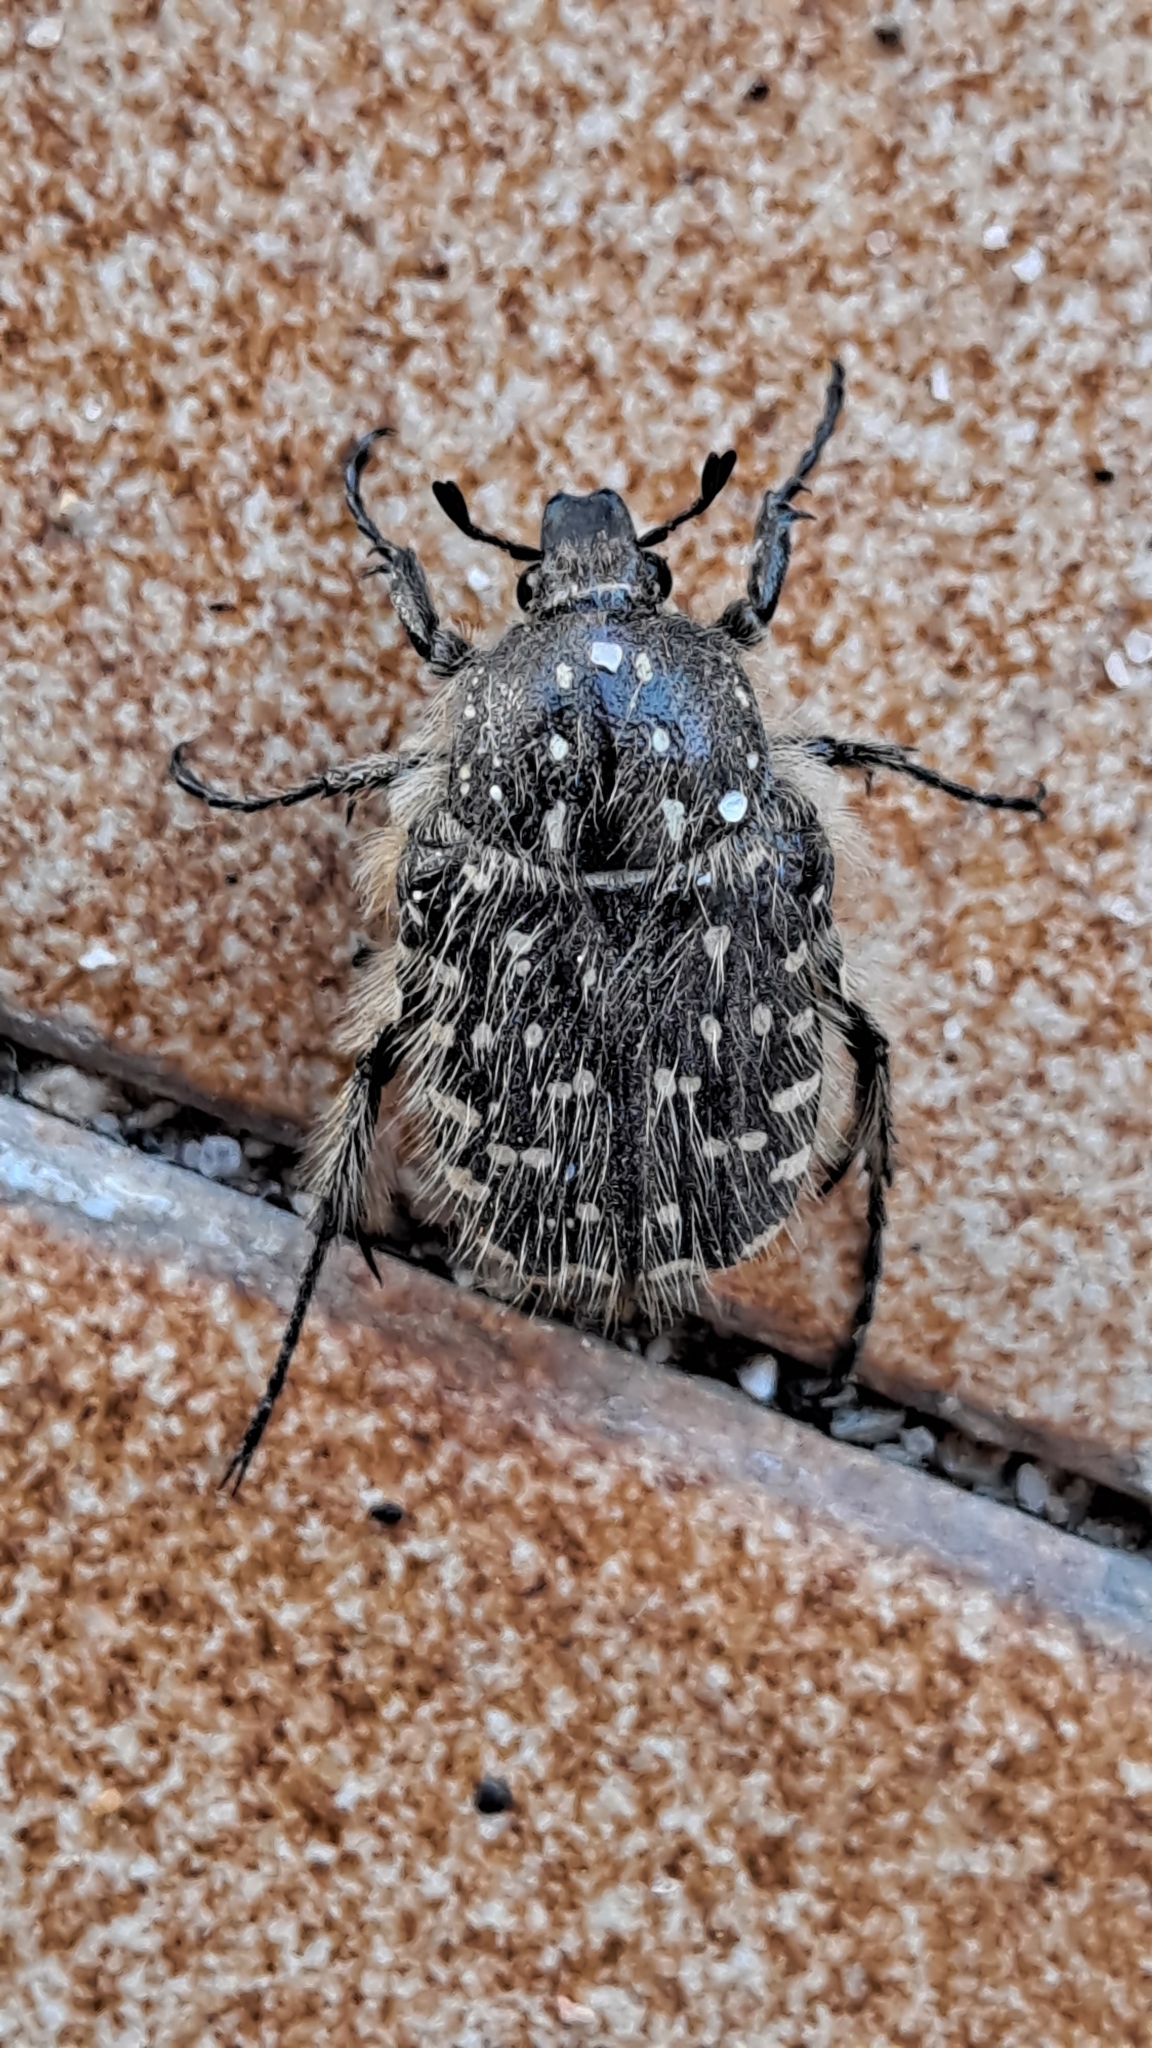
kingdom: Animalia
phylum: Arthropoda
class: Insecta
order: Coleoptera
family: Scarabaeidae
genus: Oxythyrea
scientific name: Oxythyrea funesta
